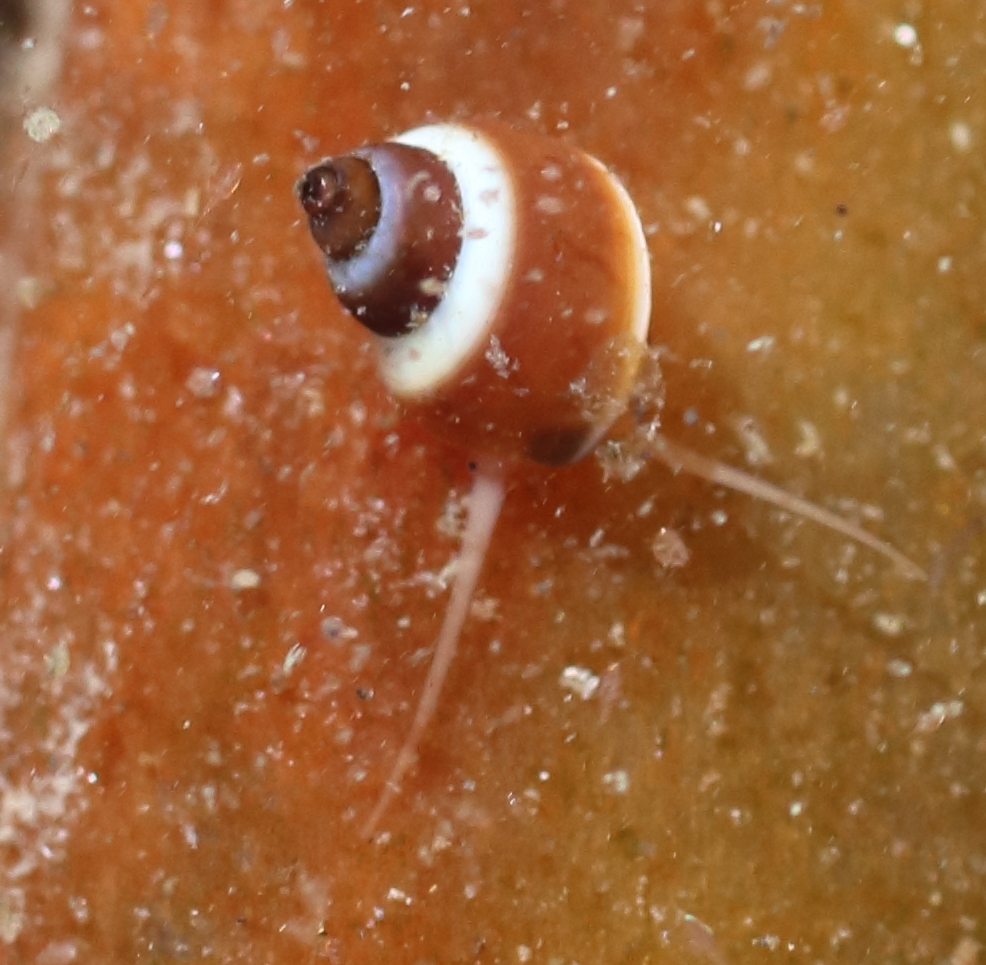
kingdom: Animalia
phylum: Mollusca
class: Gastropoda
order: Littorinimorpha
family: Littorinidae
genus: Lacuna
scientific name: Lacuna vincta
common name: Banded chink shell
